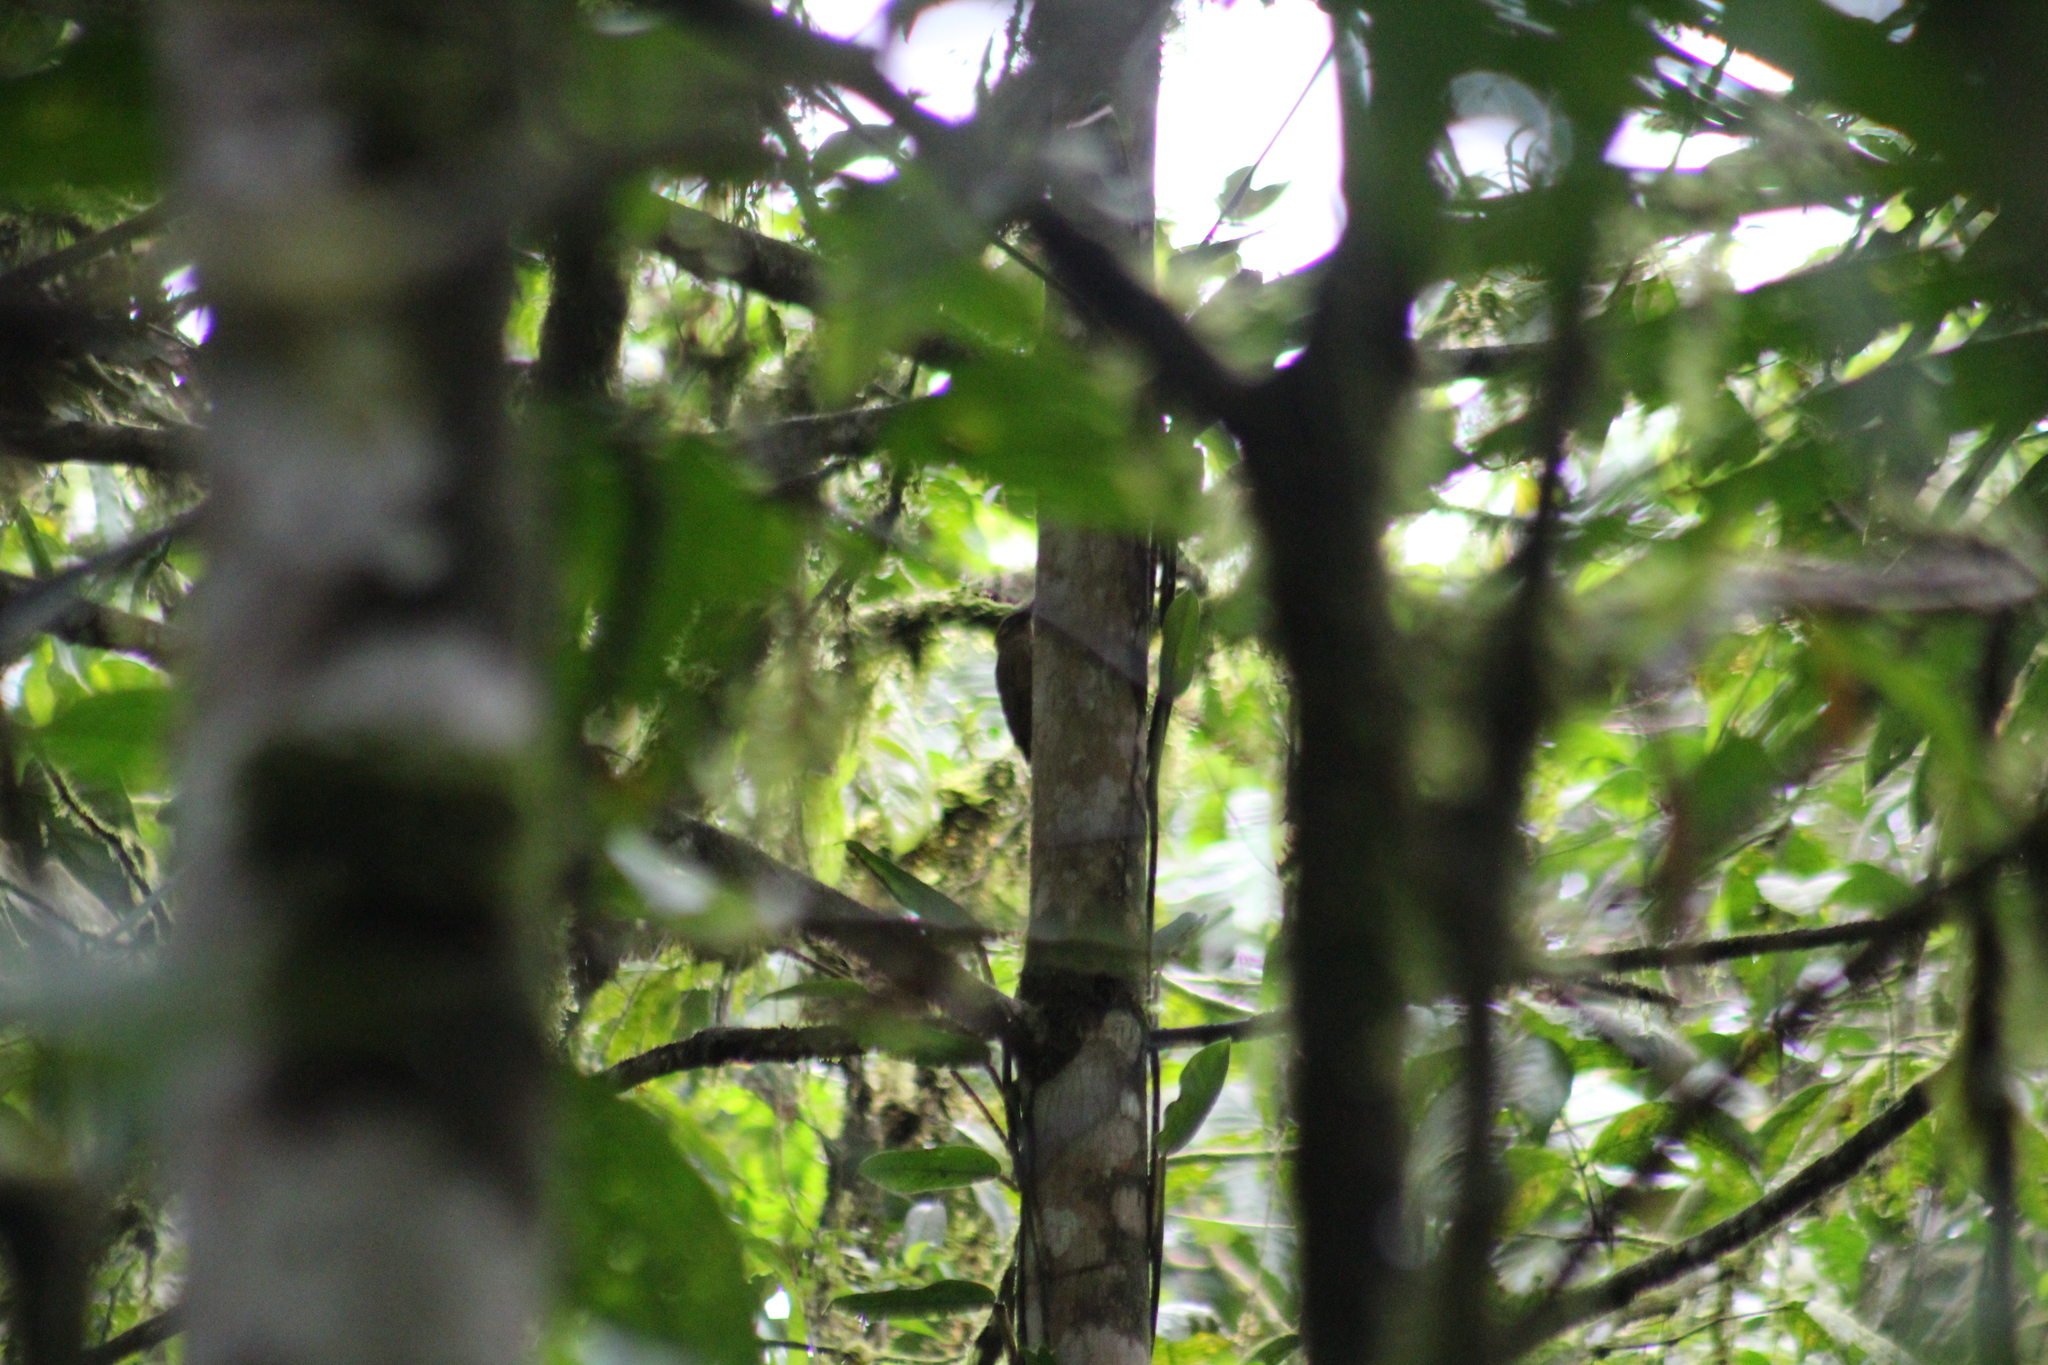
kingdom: Animalia
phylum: Chordata
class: Aves
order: Passeriformes
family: Furnariidae
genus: Dendrocincla
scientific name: Dendrocincla fuliginosa
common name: Plain-brown woodcreeper
